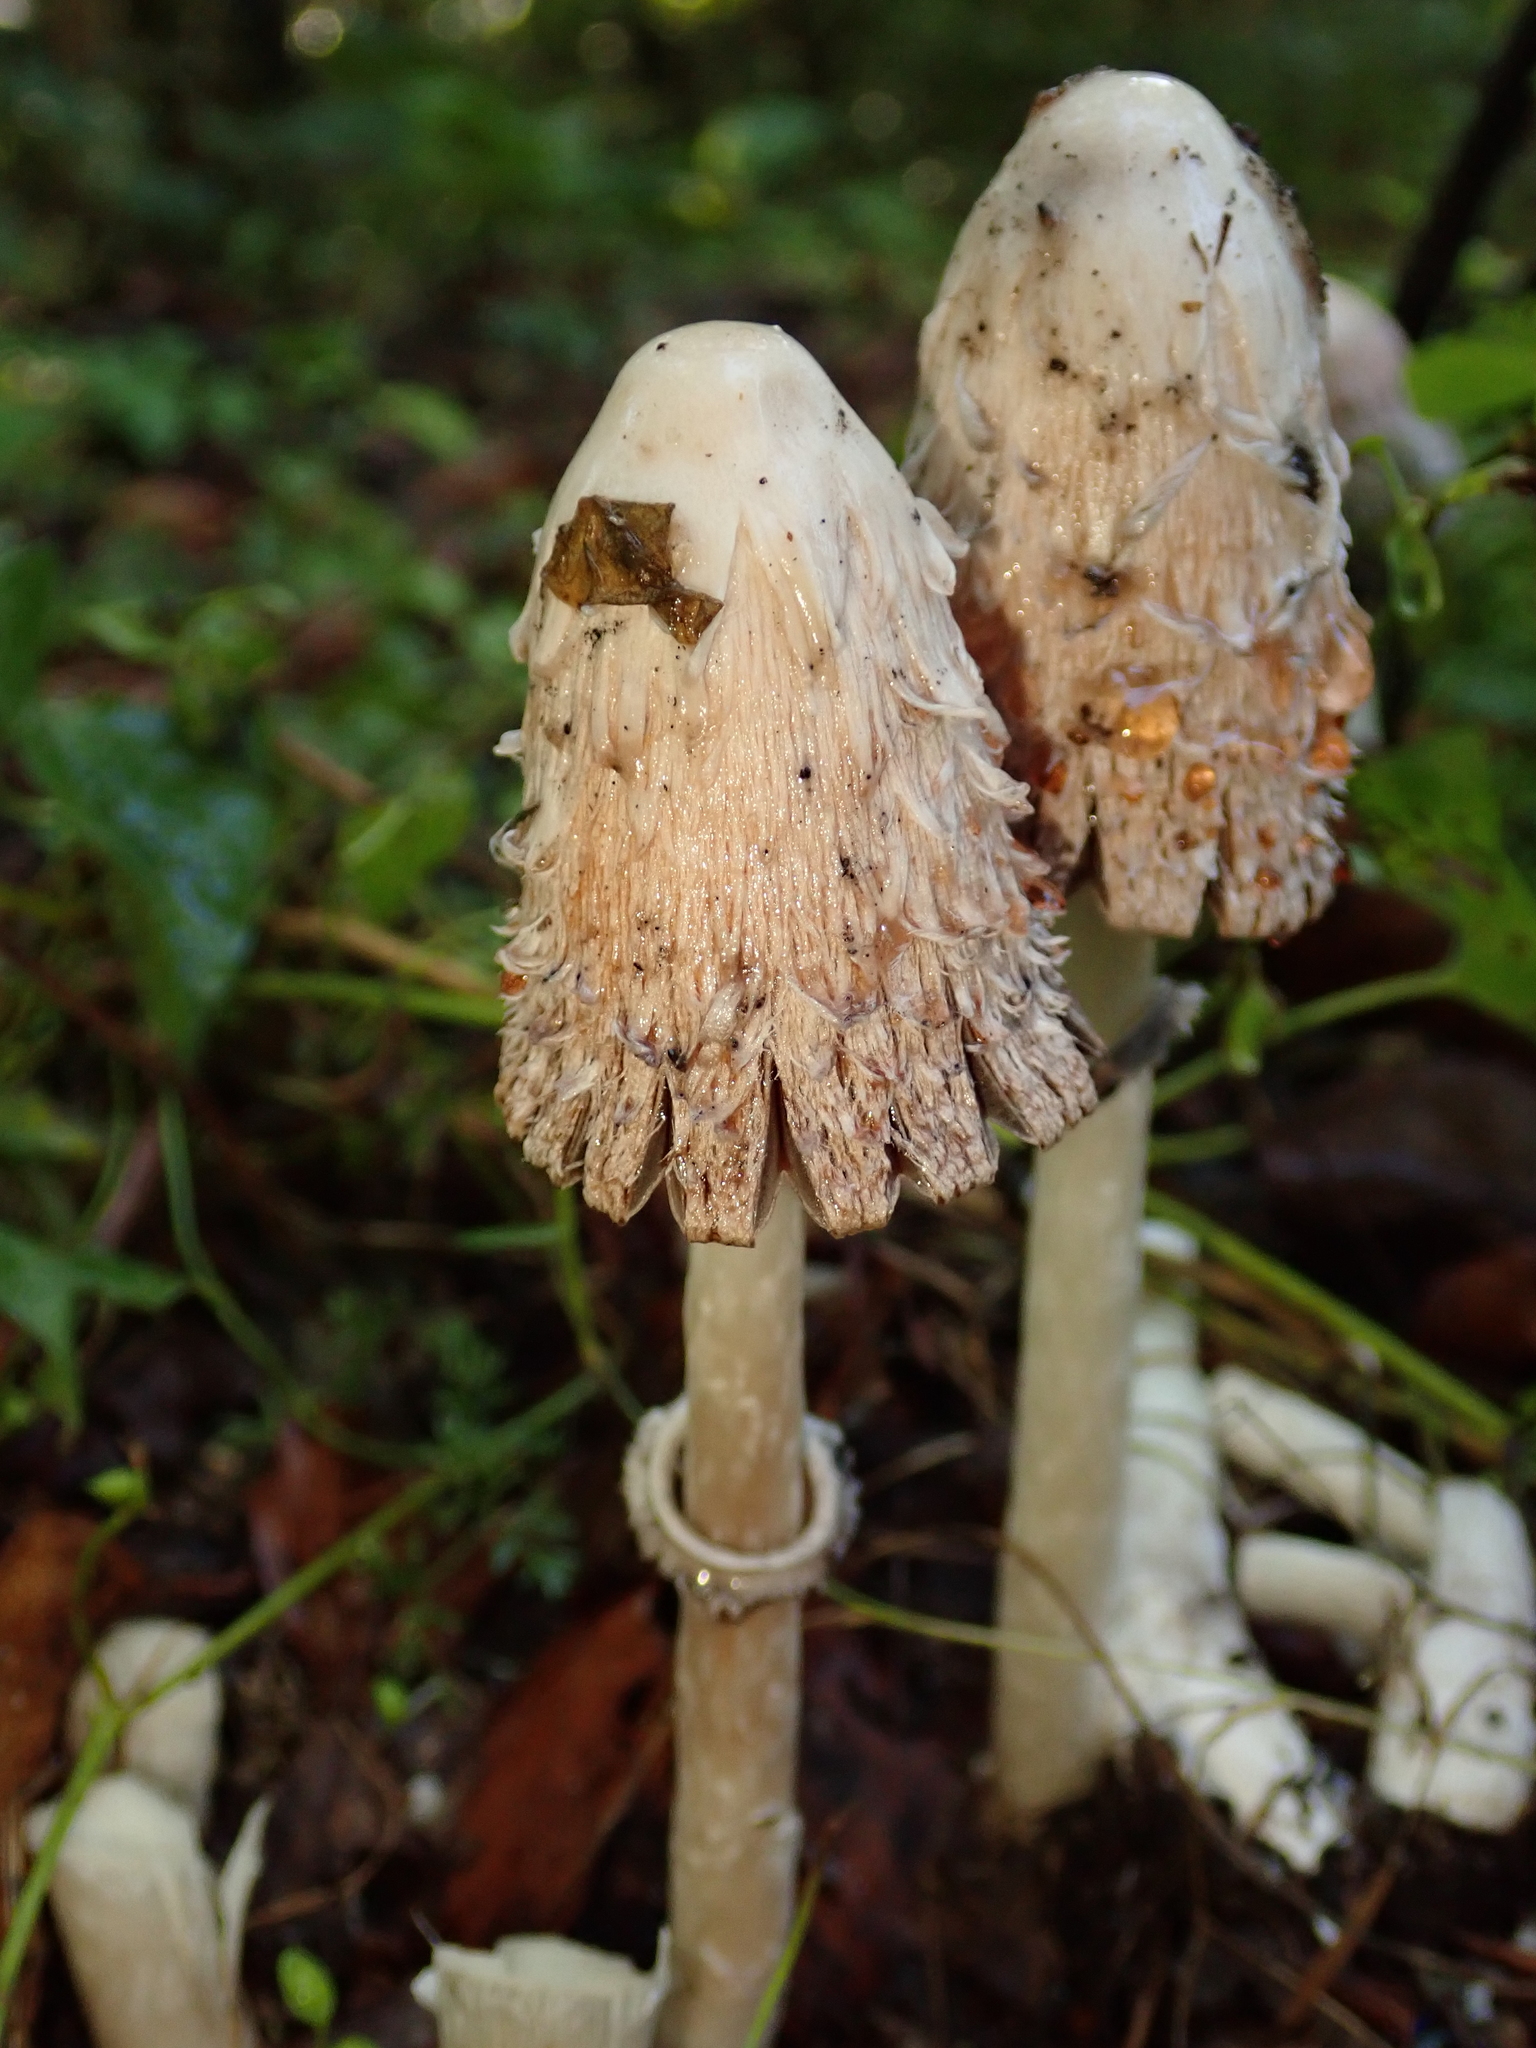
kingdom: Fungi
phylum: Basidiomycota
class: Agaricomycetes
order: Agaricales
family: Agaricaceae
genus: Coprinus
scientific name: Coprinus comatus
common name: Lawyer's wig
